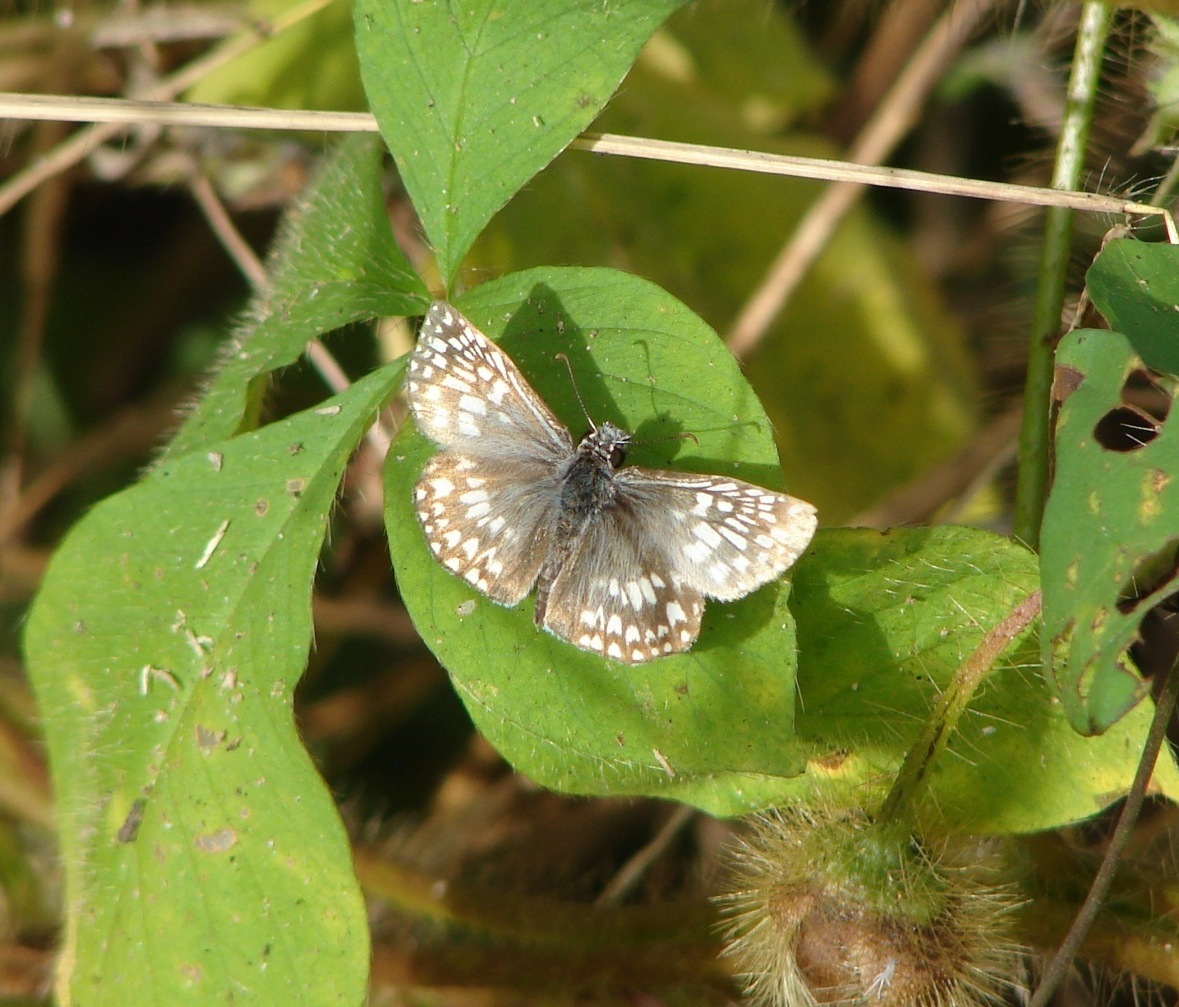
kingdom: Animalia
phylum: Arthropoda
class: Insecta
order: Lepidoptera
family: Hesperiidae
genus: Pyrgus
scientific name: Pyrgus oileus
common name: Tropical checkered-skipper
